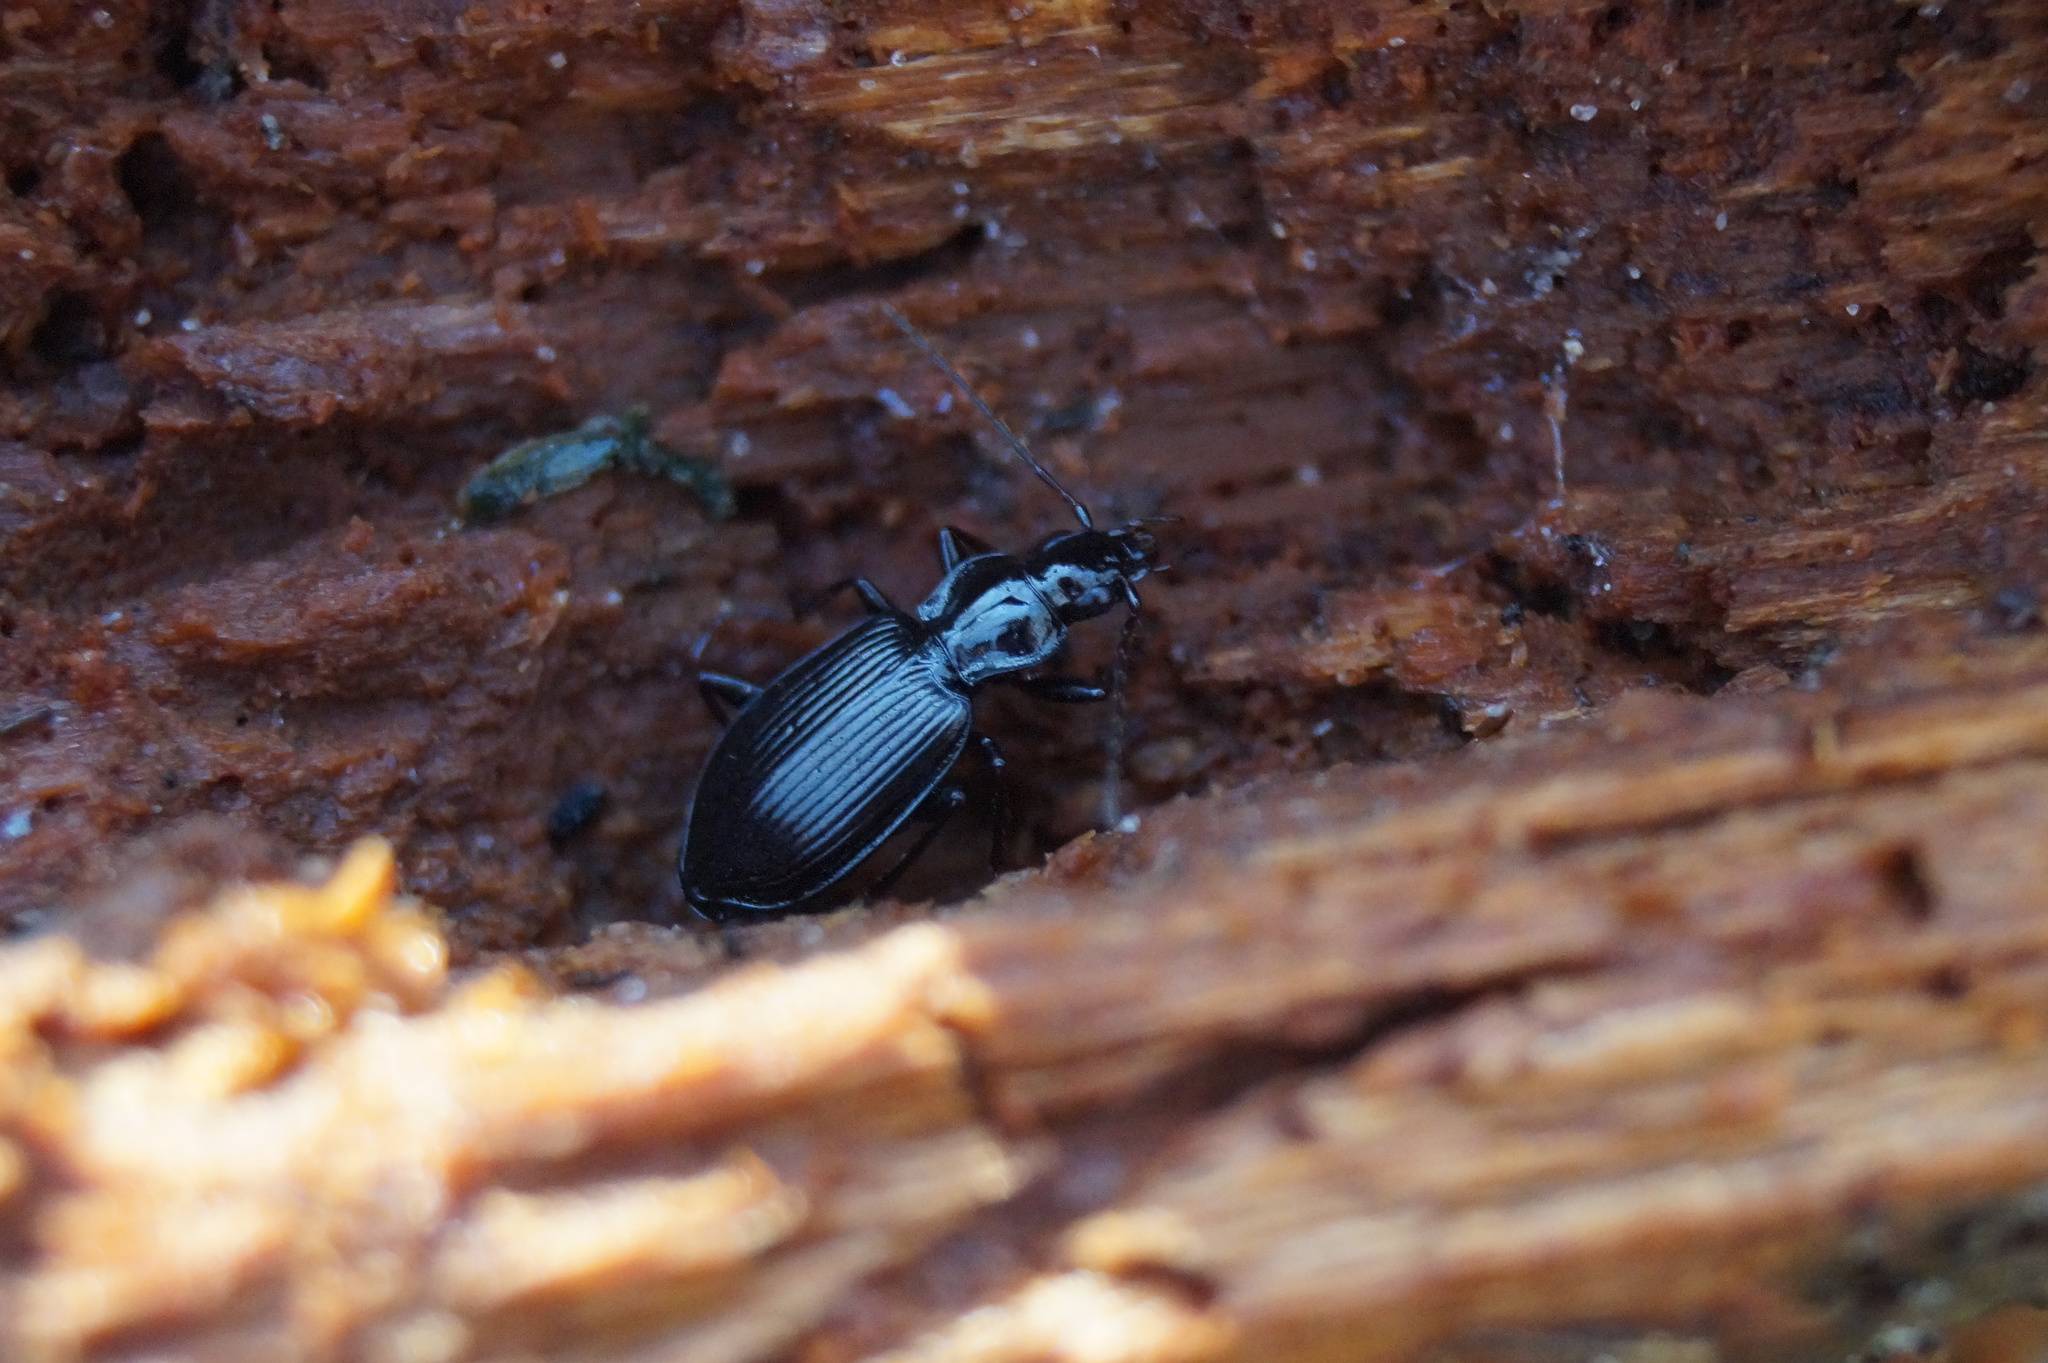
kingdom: Animalia
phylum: Arthropoda
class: Insecta
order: Coleoptera
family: Carabidae
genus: Platynus
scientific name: Platynus assimilis
